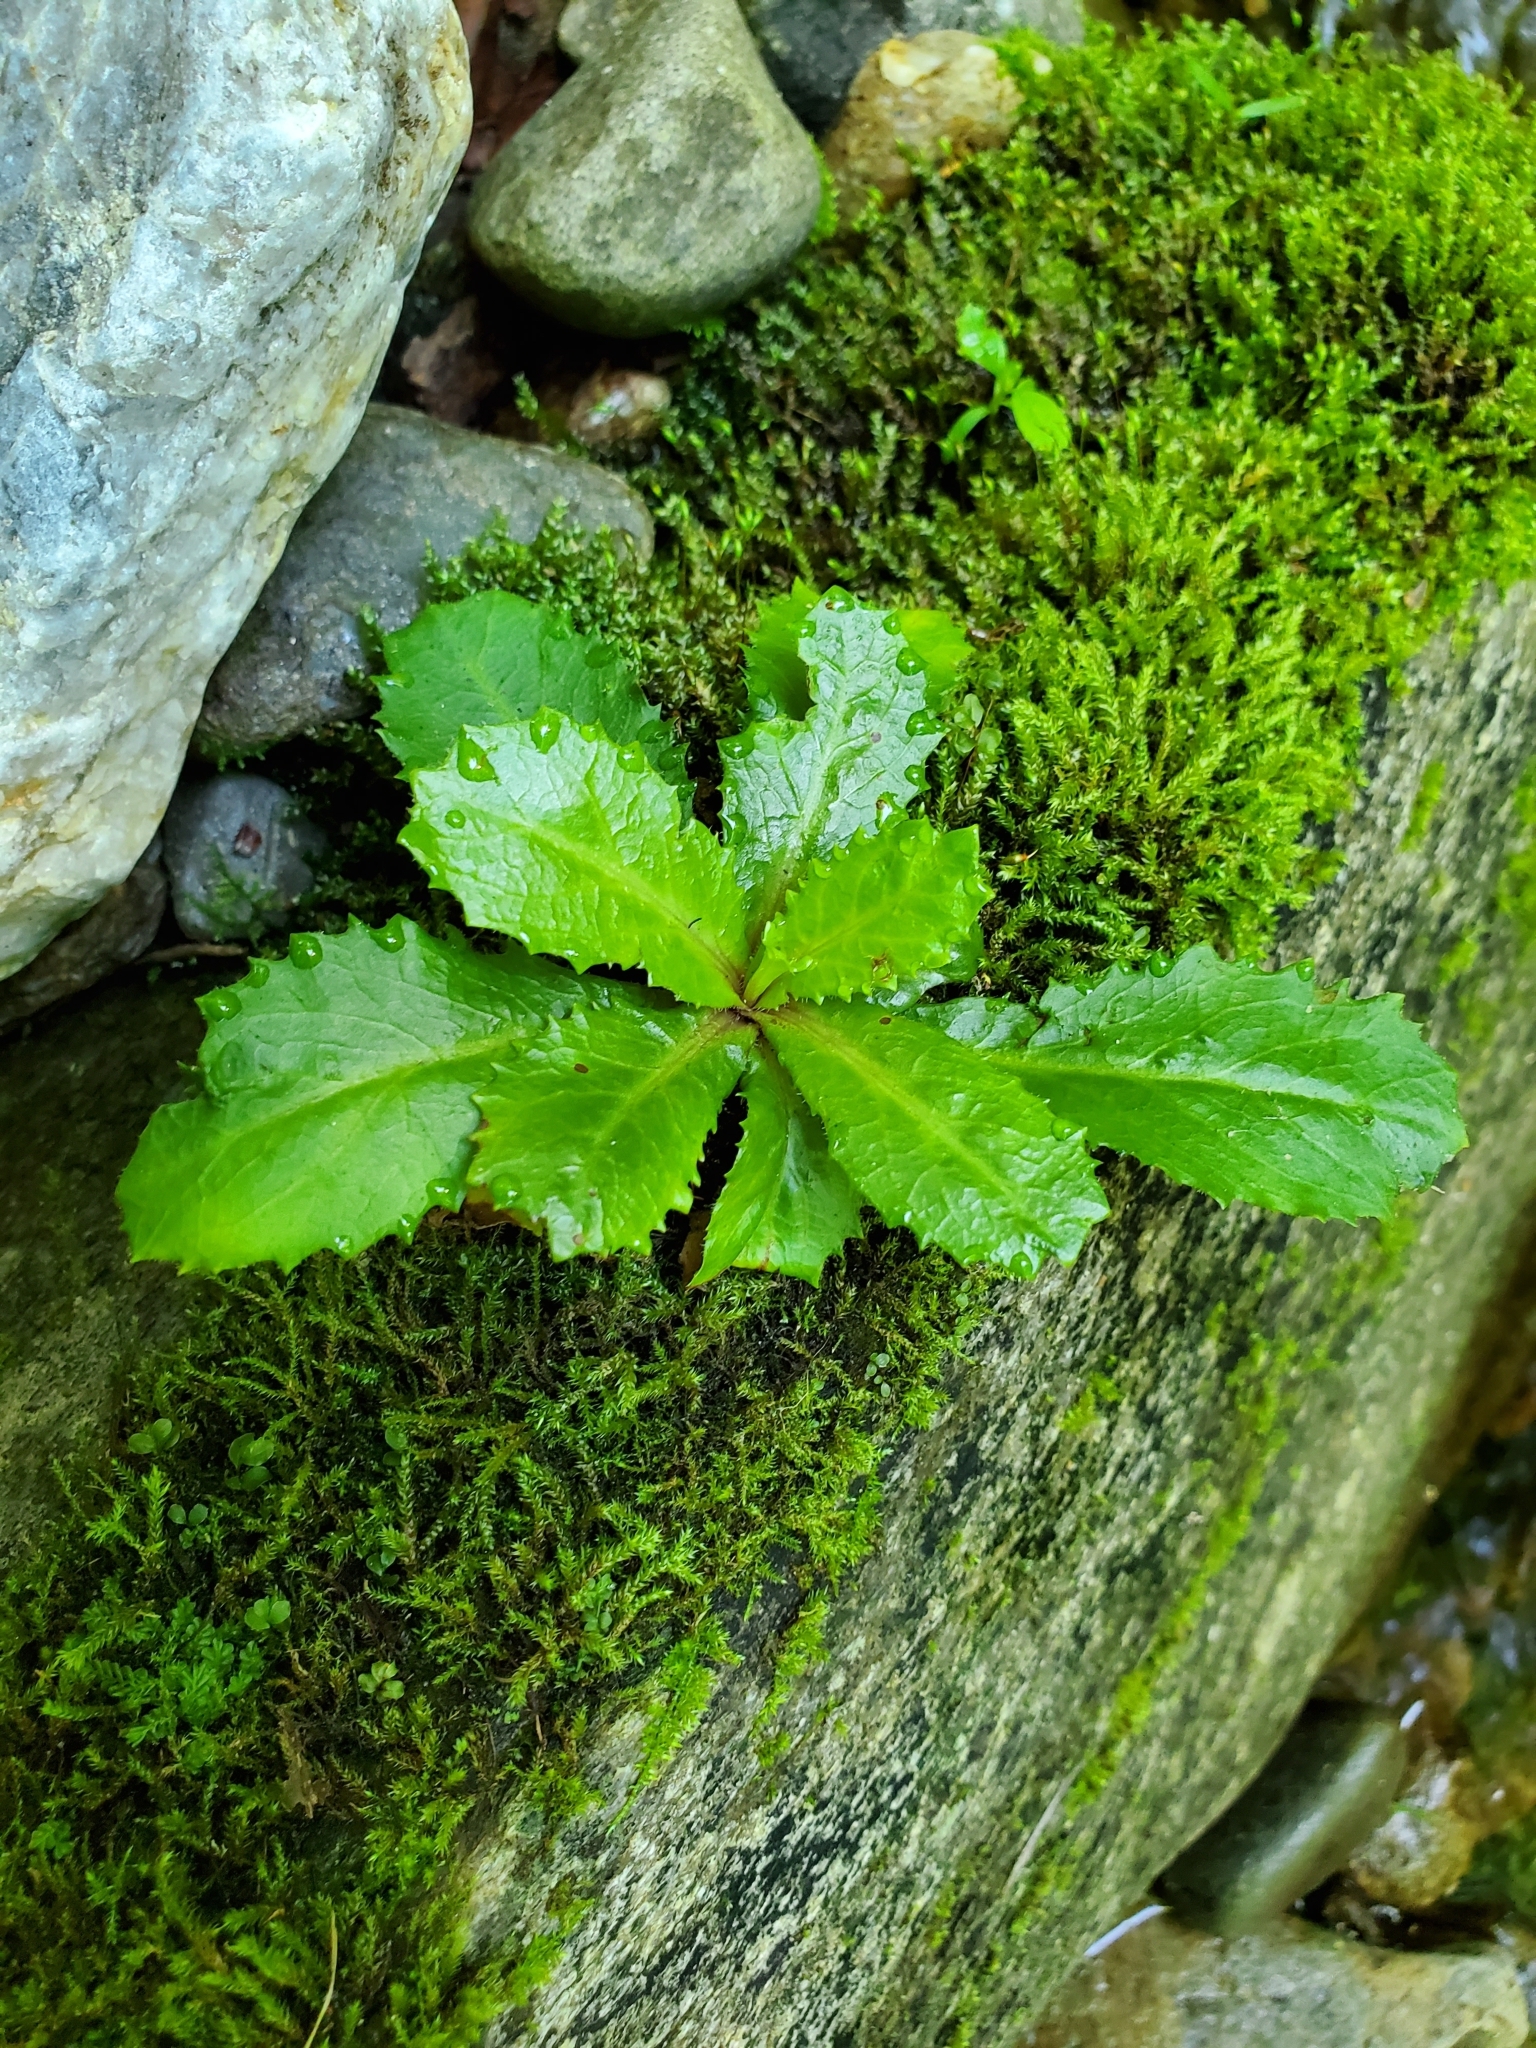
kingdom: Plantae
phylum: Tracheophyta
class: Magnoliopsida
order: Saxifragales
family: Saxifragaceae
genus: Micranthes
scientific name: Micranthes micranthidifolia
